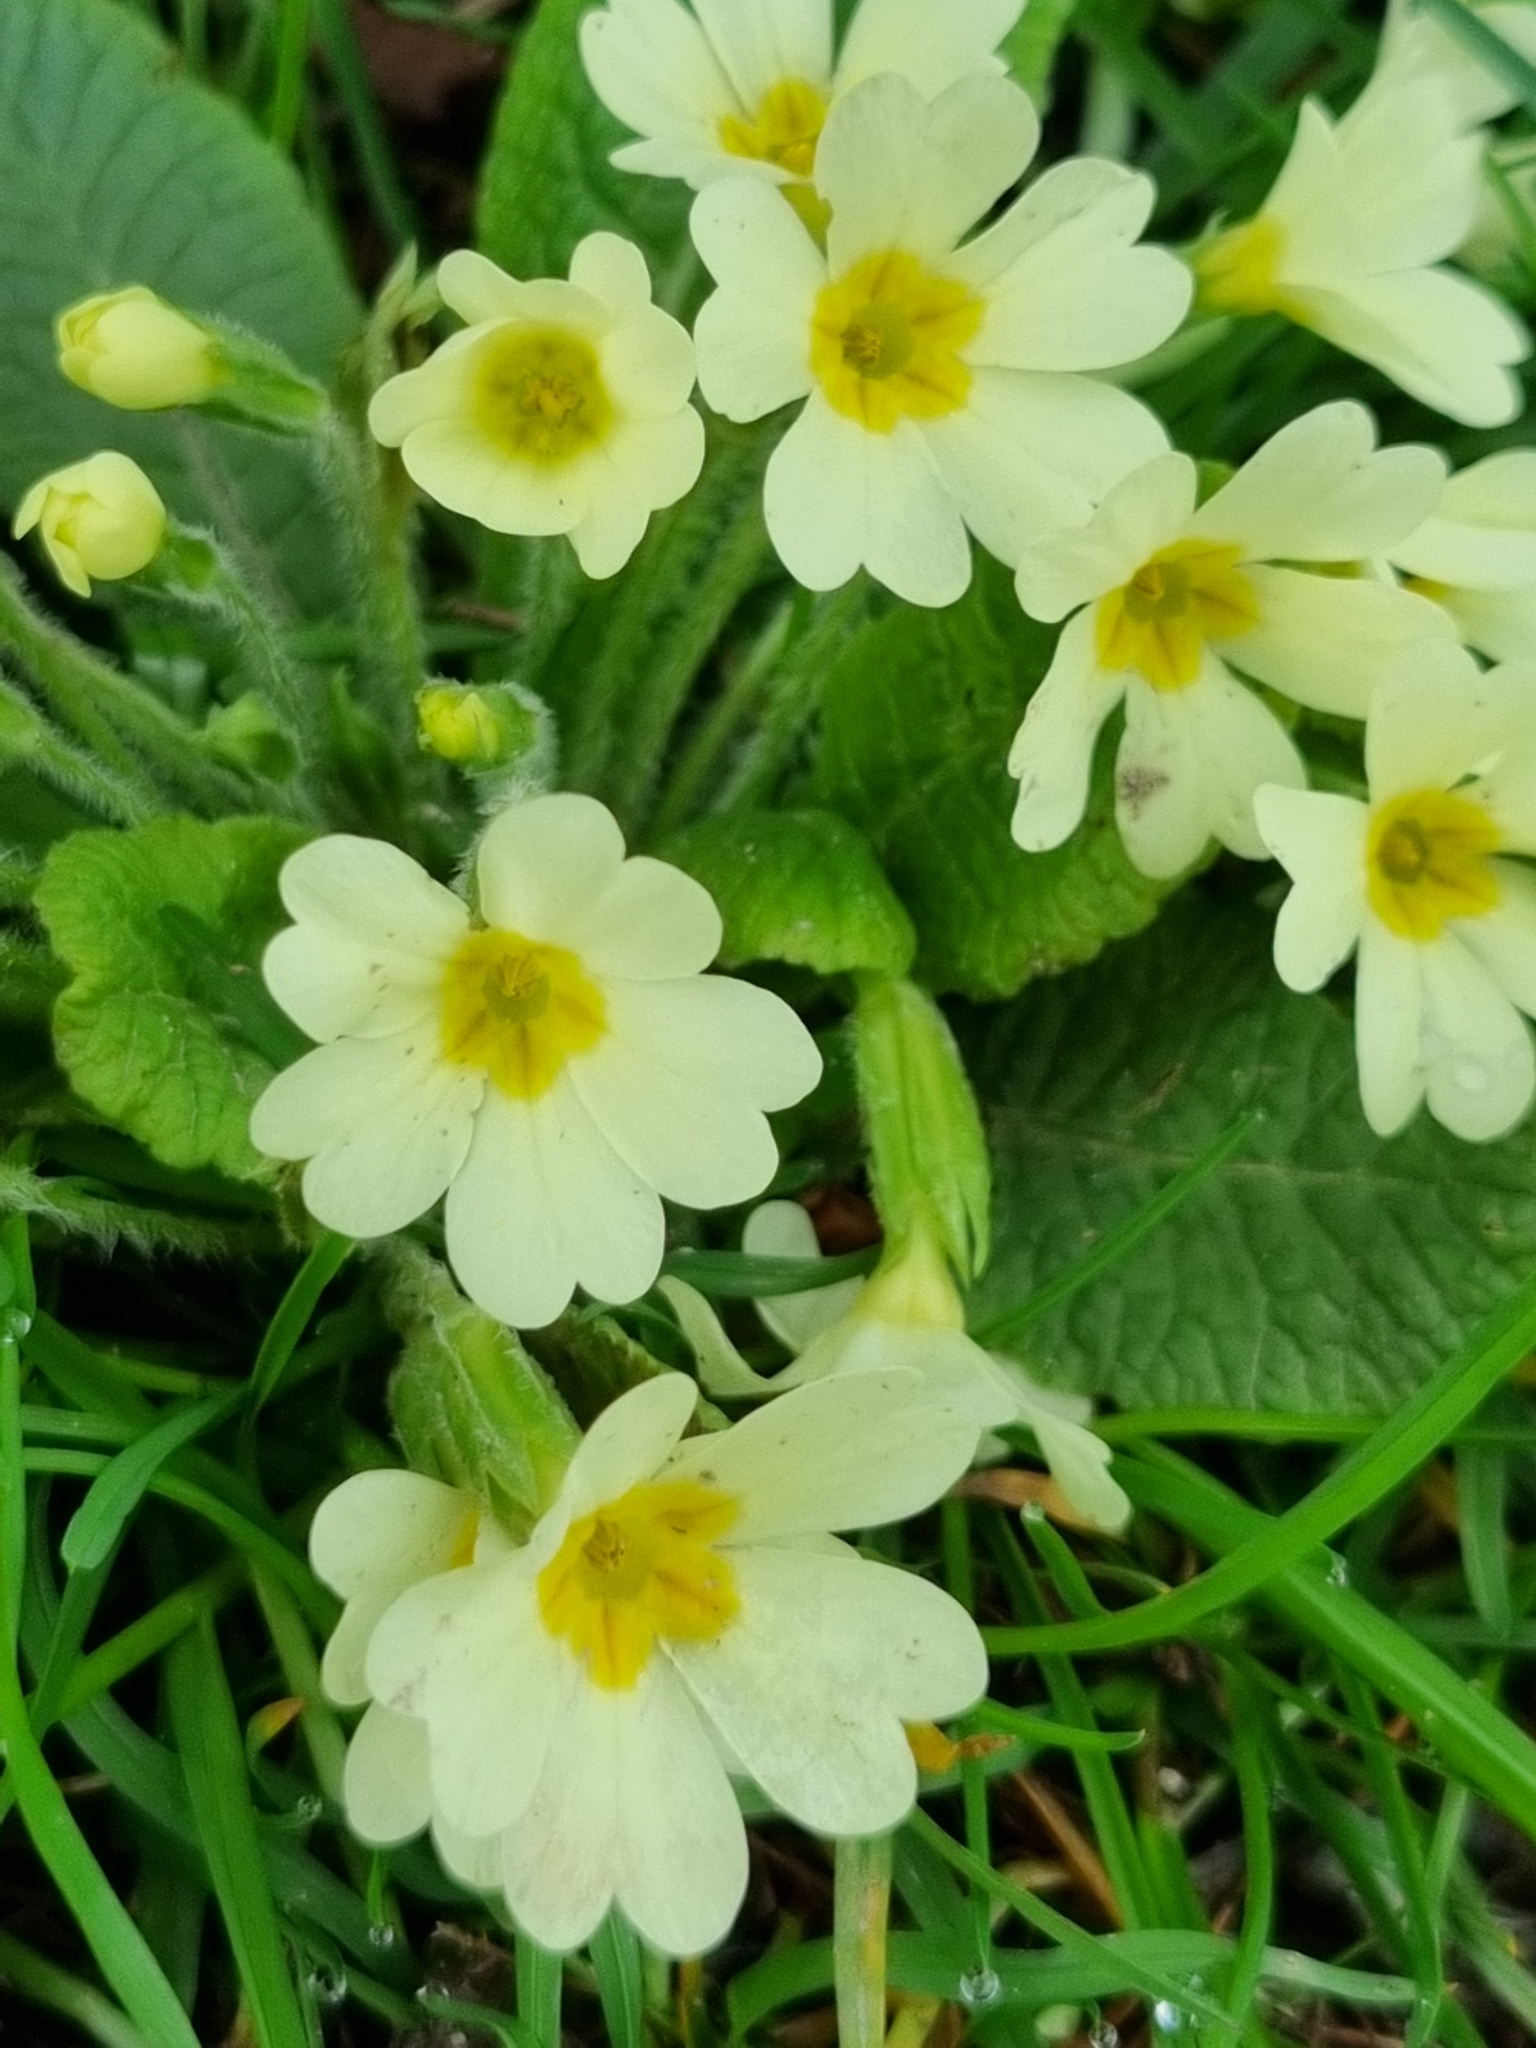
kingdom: Plantae
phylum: Tracheophyta
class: Magnoliopsida
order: Ericales
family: Primulaceae
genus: Primula
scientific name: Primula vulgaris
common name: Primrose
